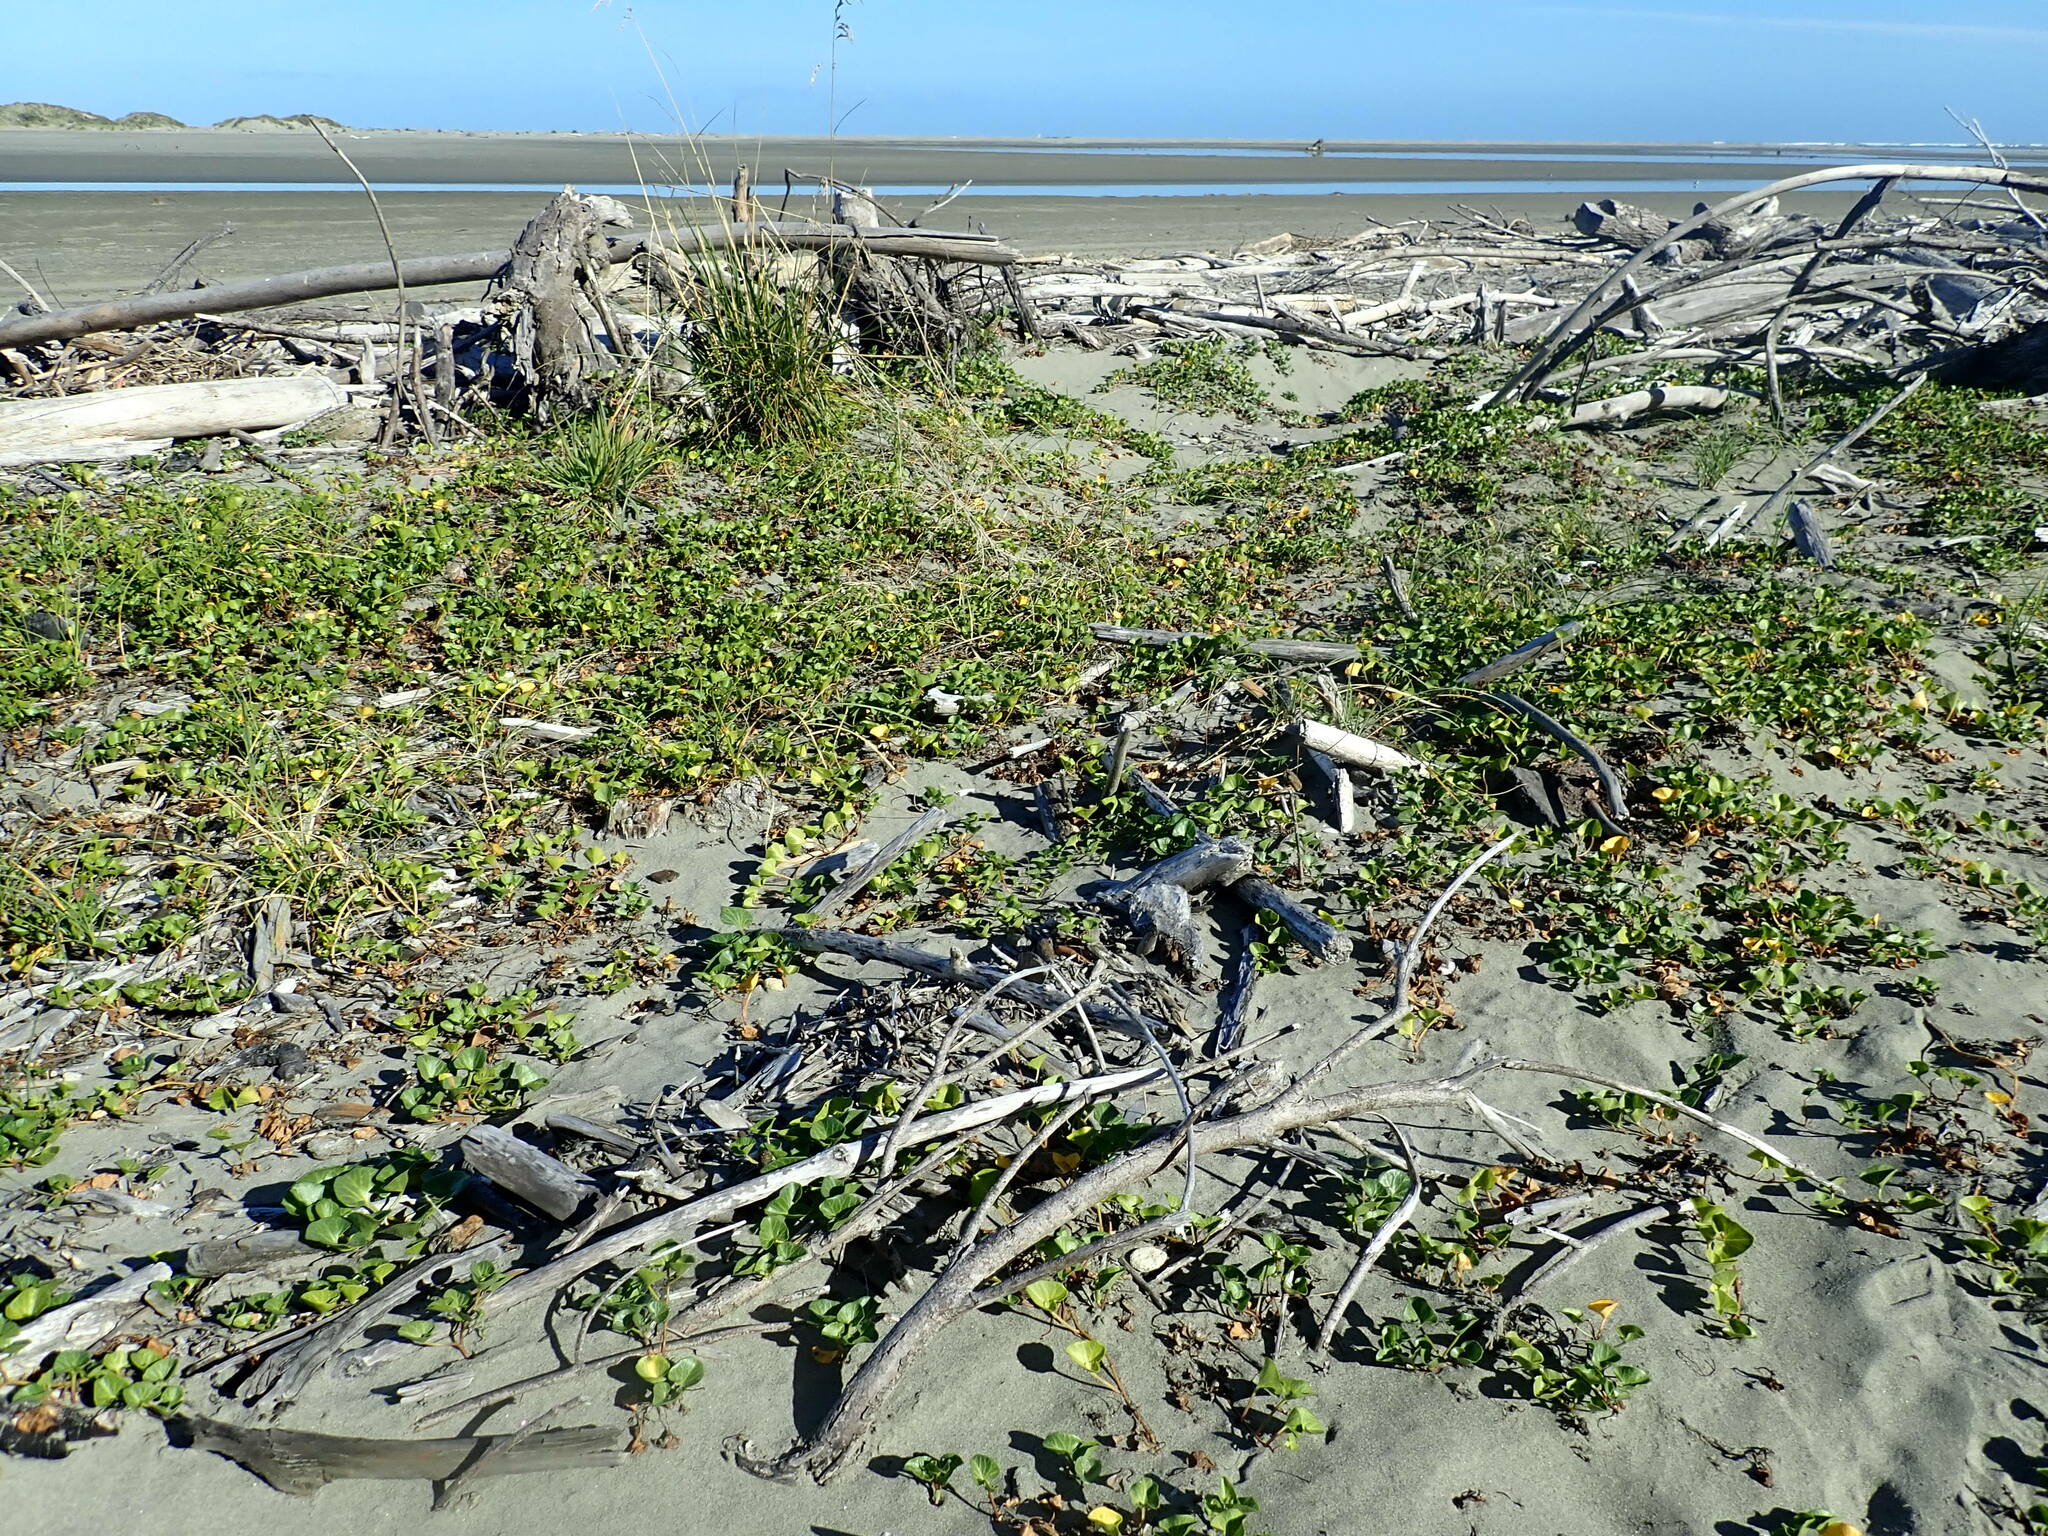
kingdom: Plantae
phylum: Tracheophyta
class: Magnoliopsida
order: Solanales
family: Convolvulaceae
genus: Calystegia
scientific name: Calystegia soldanella
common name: Sea bindweed
